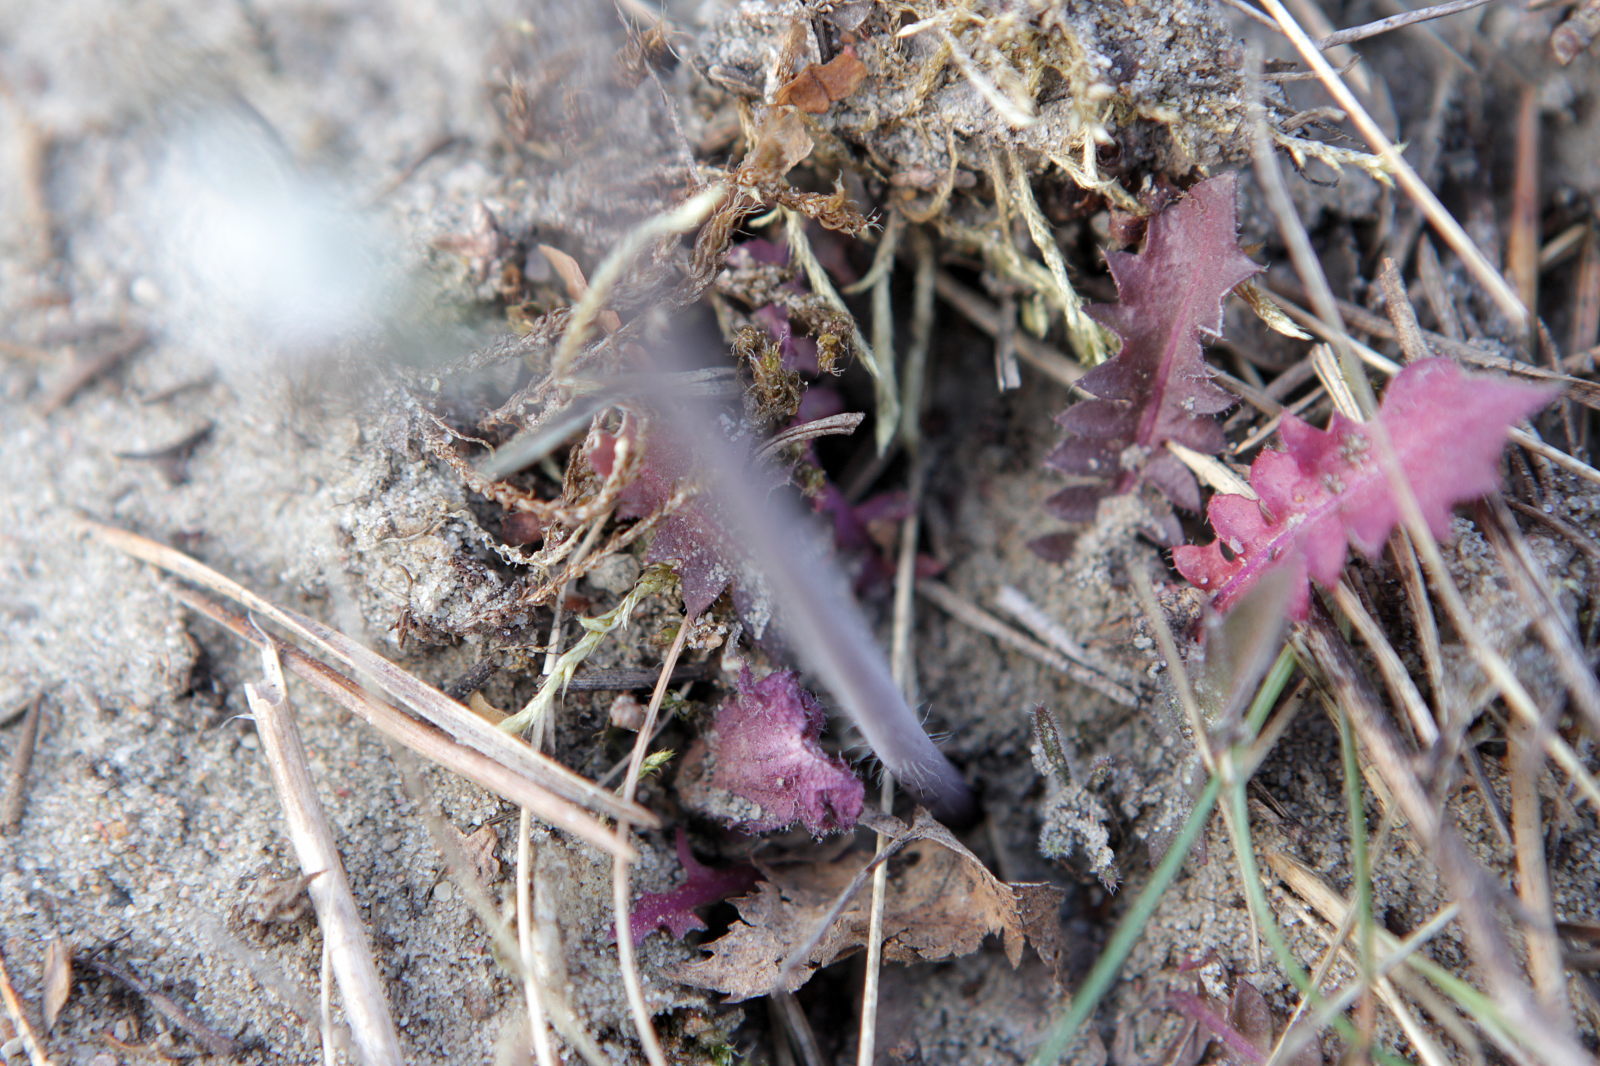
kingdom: Plantae
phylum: Tracheophyta
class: Magnoliopsida
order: Brassicales
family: Brassicaceae
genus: Arabidopsis
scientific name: Arabidopsis arenosa
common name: Sand rock-cress
